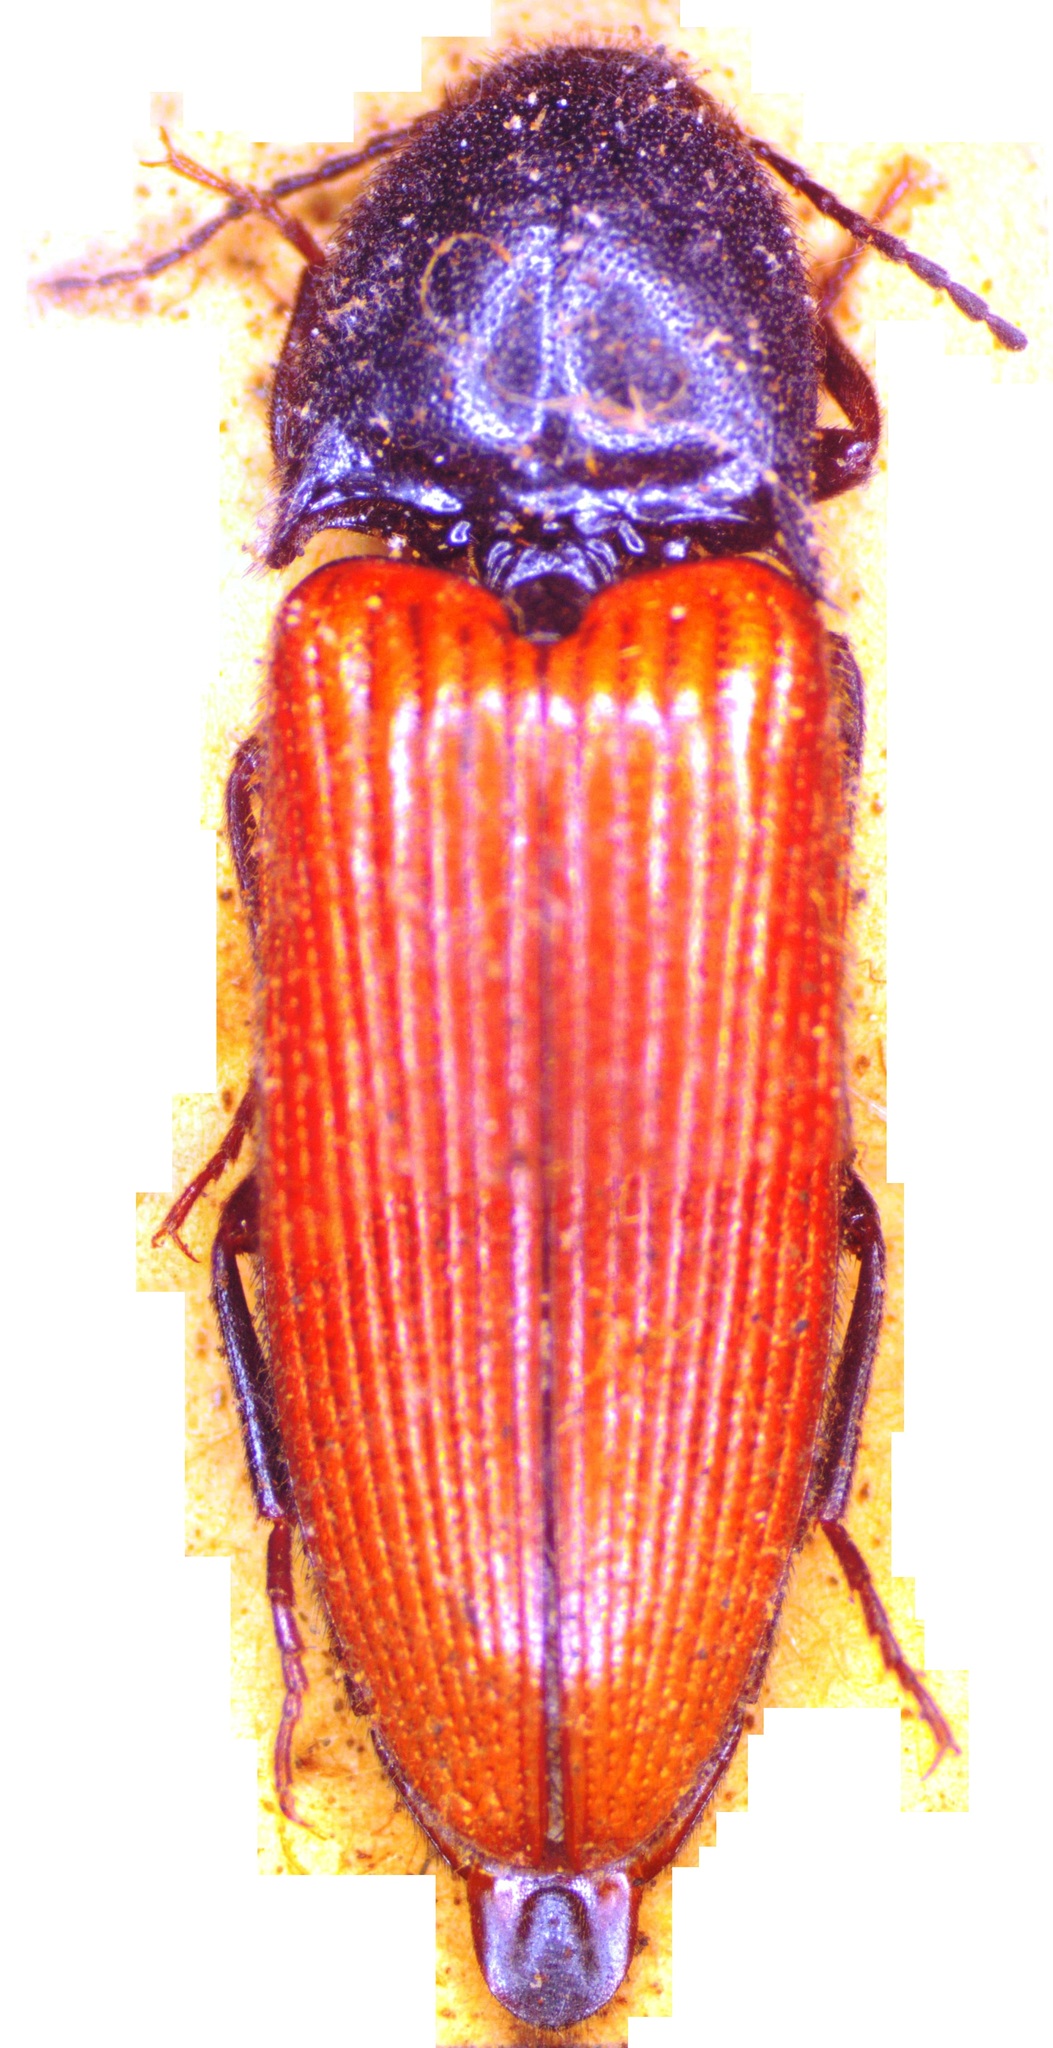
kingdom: Animalia
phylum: Arthropoda
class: Insecta
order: Coleoptera
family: Elateridae
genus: Ampedus
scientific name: Ampedus sanguineus
